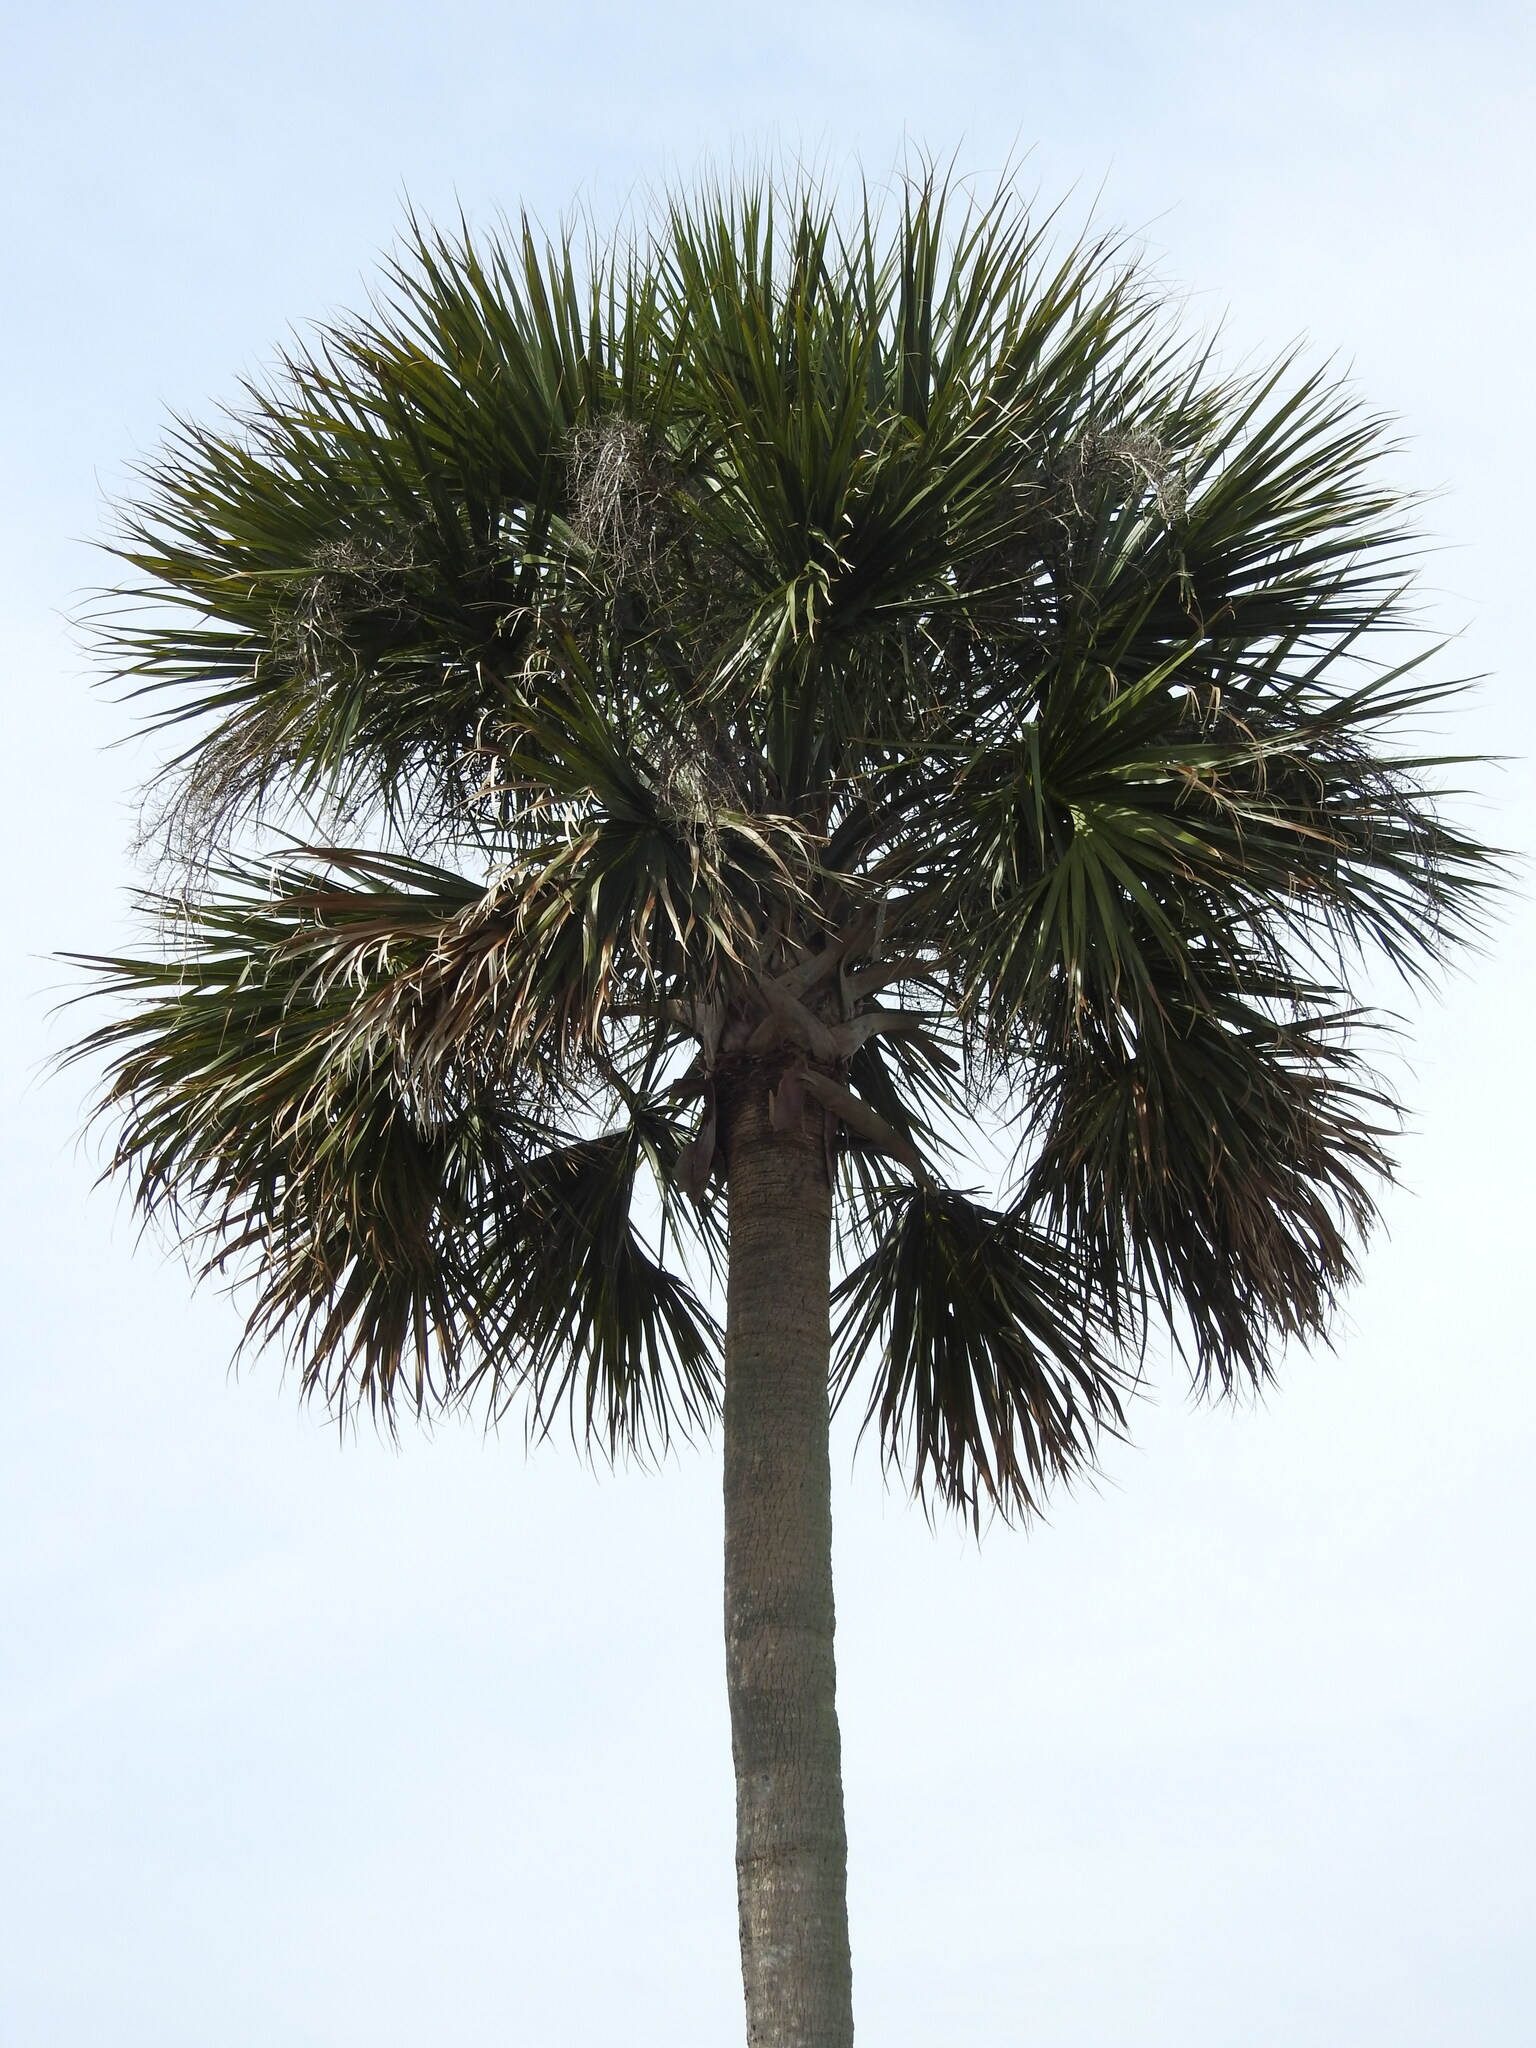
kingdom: Plantae
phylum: Tracheophyta
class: Liliopsida
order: Arecales
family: Arecaceae
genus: Sabal
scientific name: Sabal palmetto
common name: Blue palmetto
